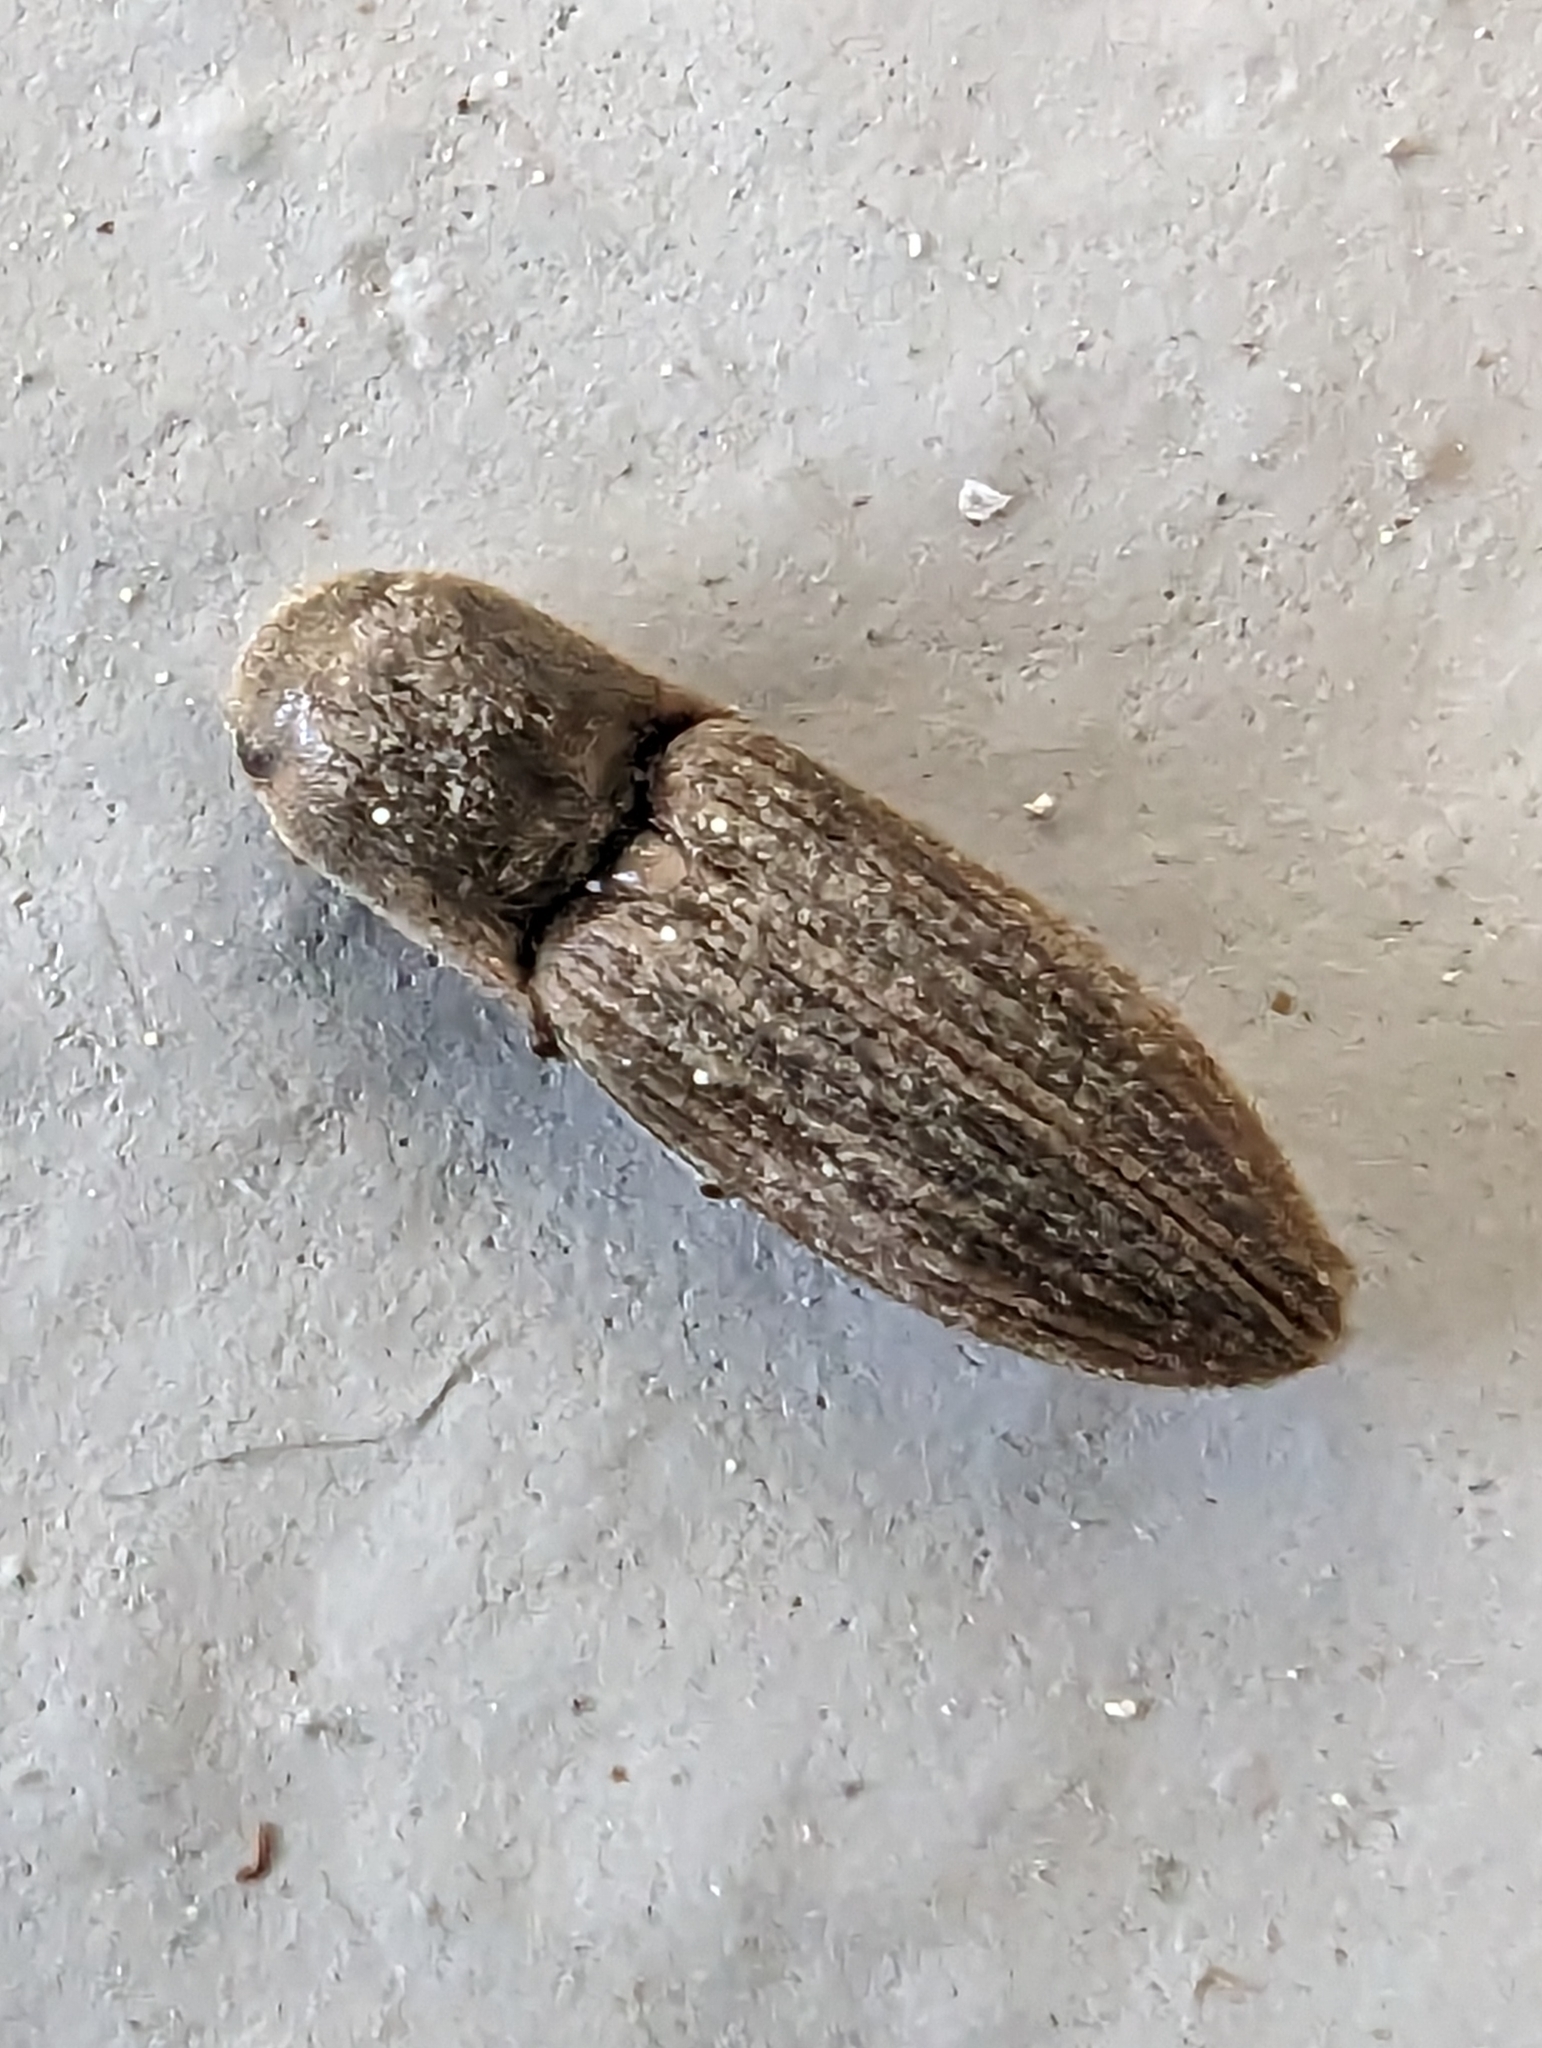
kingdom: Animalia
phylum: Arthropoda
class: Insecta
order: Coleoptera
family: Elateridae
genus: Agriotes
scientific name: Agriotes lineatus
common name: Lined click beetle
